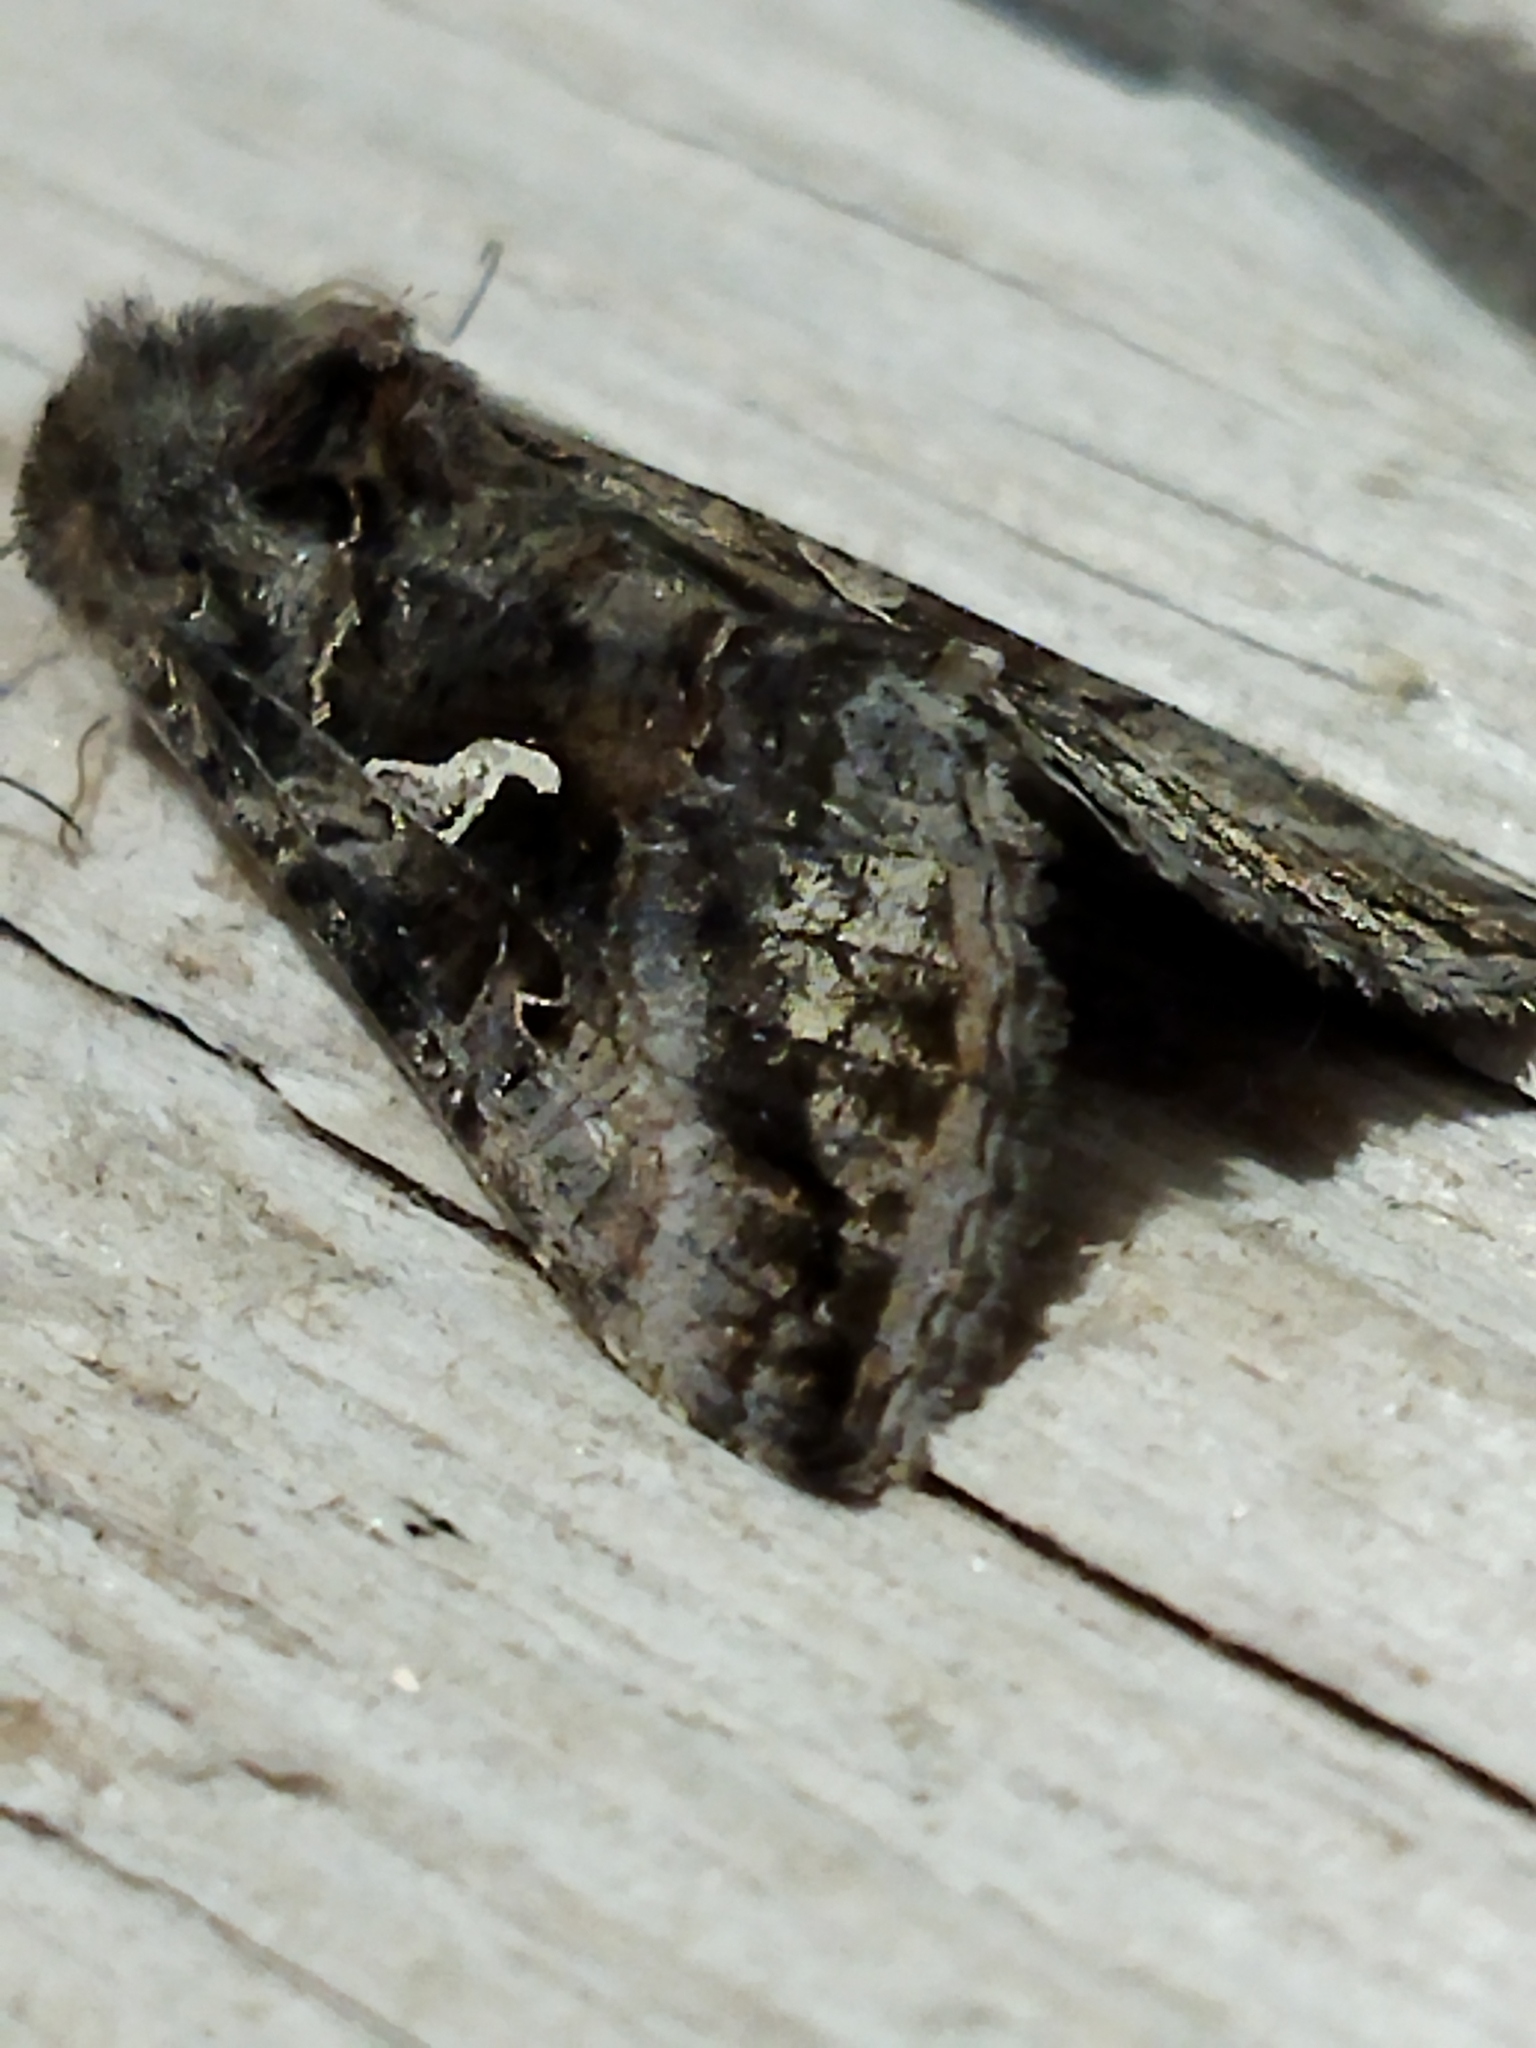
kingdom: Animalia
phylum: Arthropoda
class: Insecta
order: Lepidoptera
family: Noctuidae
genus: Autographa
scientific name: Autographa gamma
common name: Silver y
